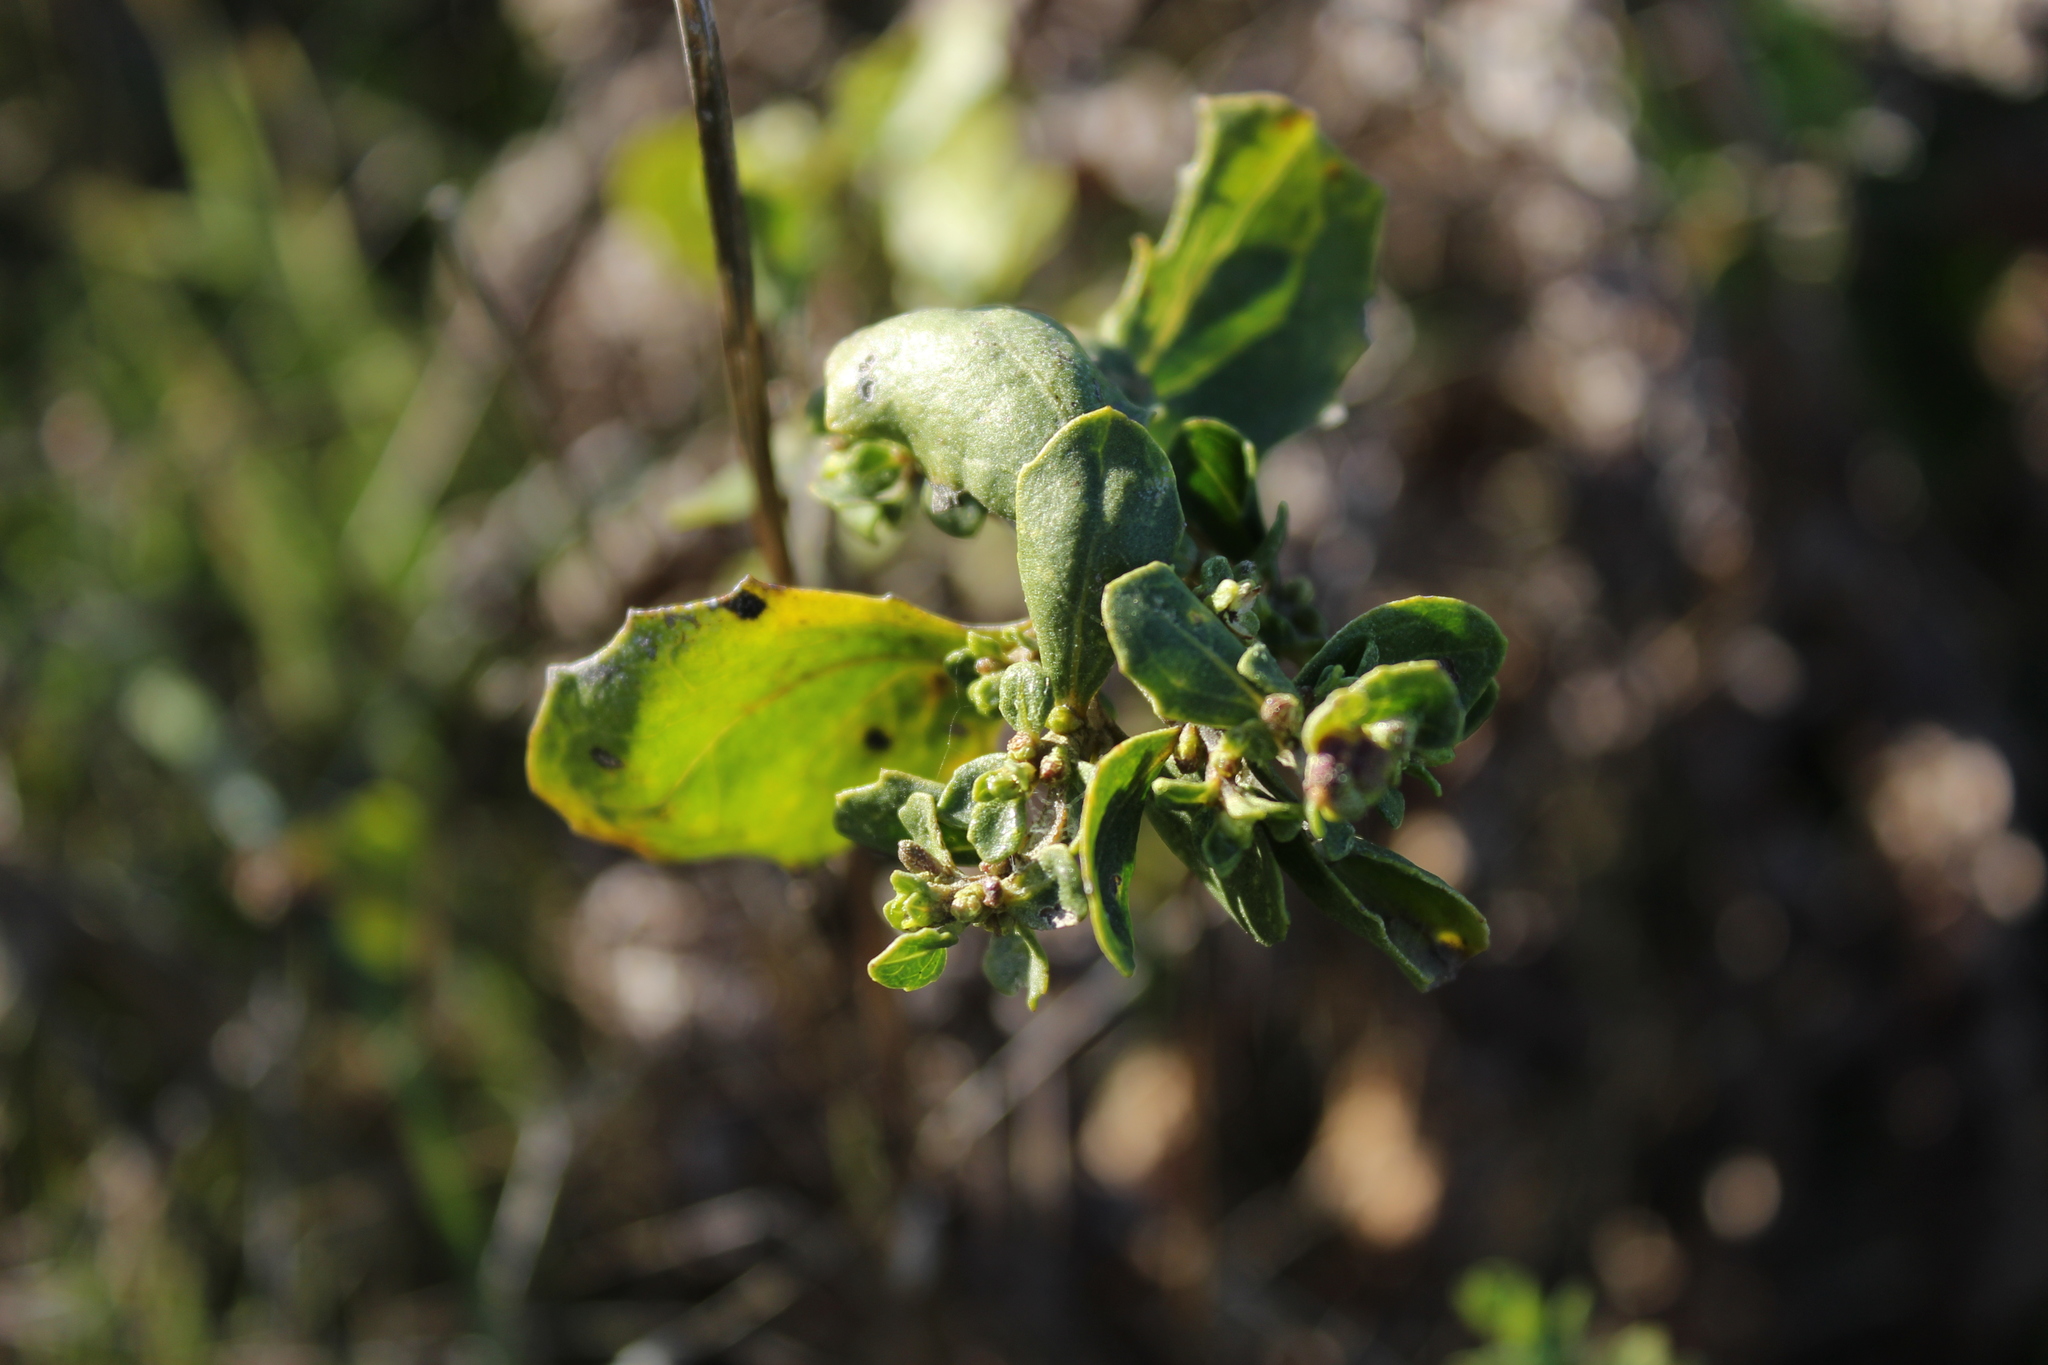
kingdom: Plantae
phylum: Tracheophyta
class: Magnoliopsida
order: Asterales
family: Asteraceae
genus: Baccharis
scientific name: Baccharis pilularis
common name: Coyotebrush
